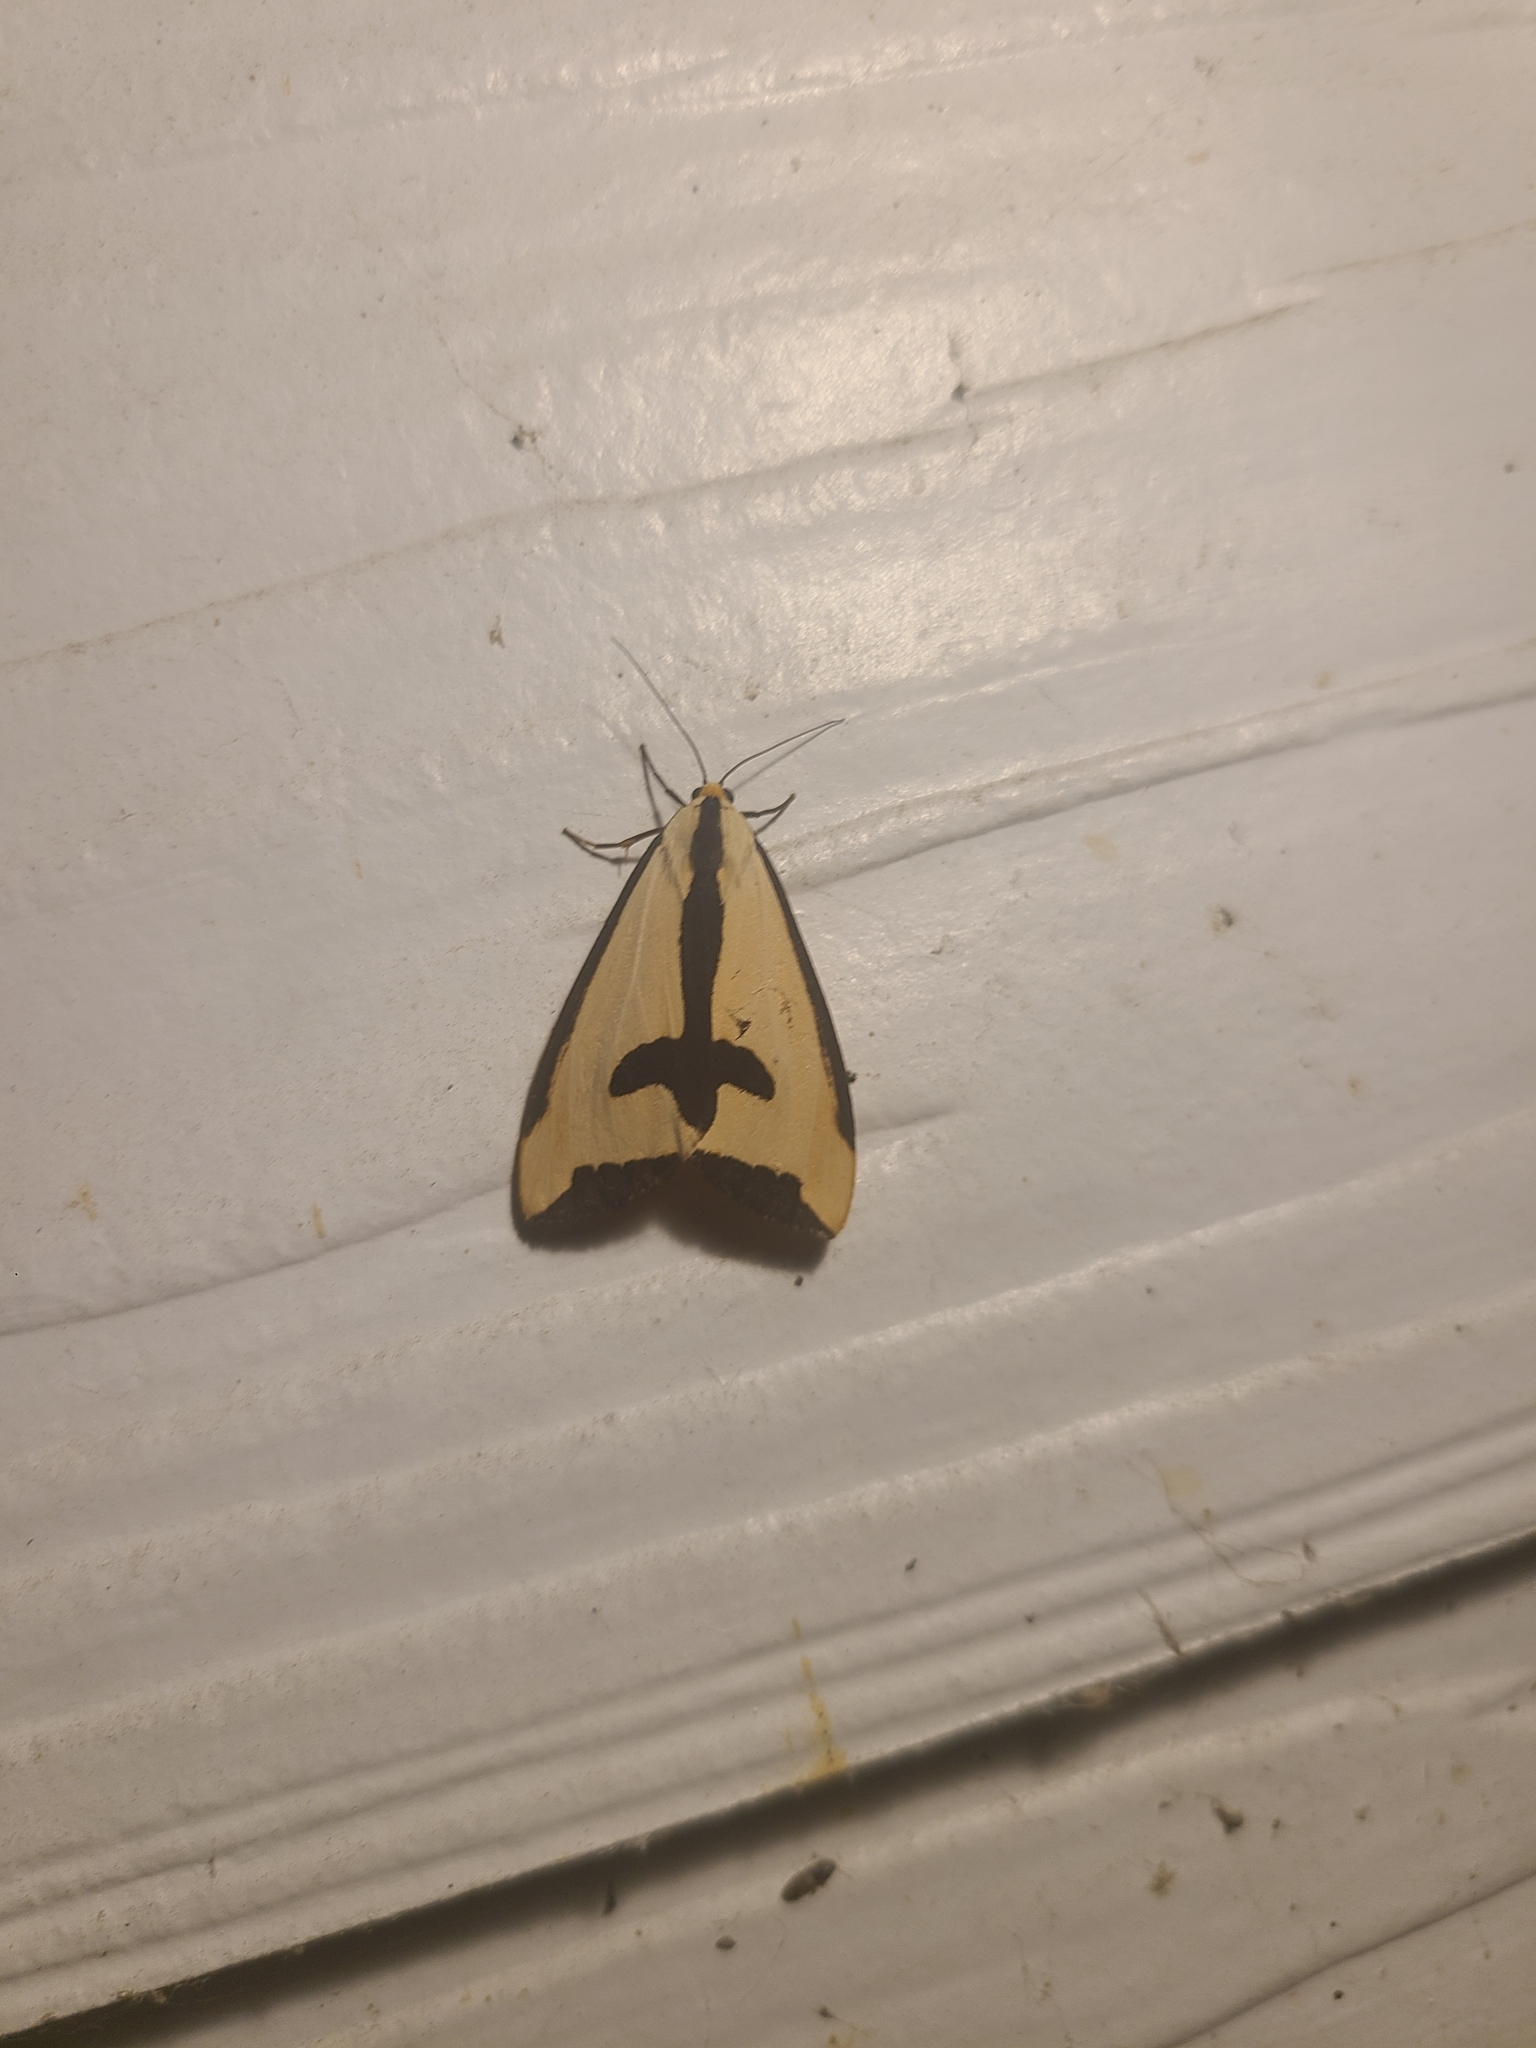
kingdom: Animalia
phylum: Arthropoda
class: Insecta
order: Lepidoptera
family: Erebidae
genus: Haploa
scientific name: Haploa clymene
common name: Clymene moth
